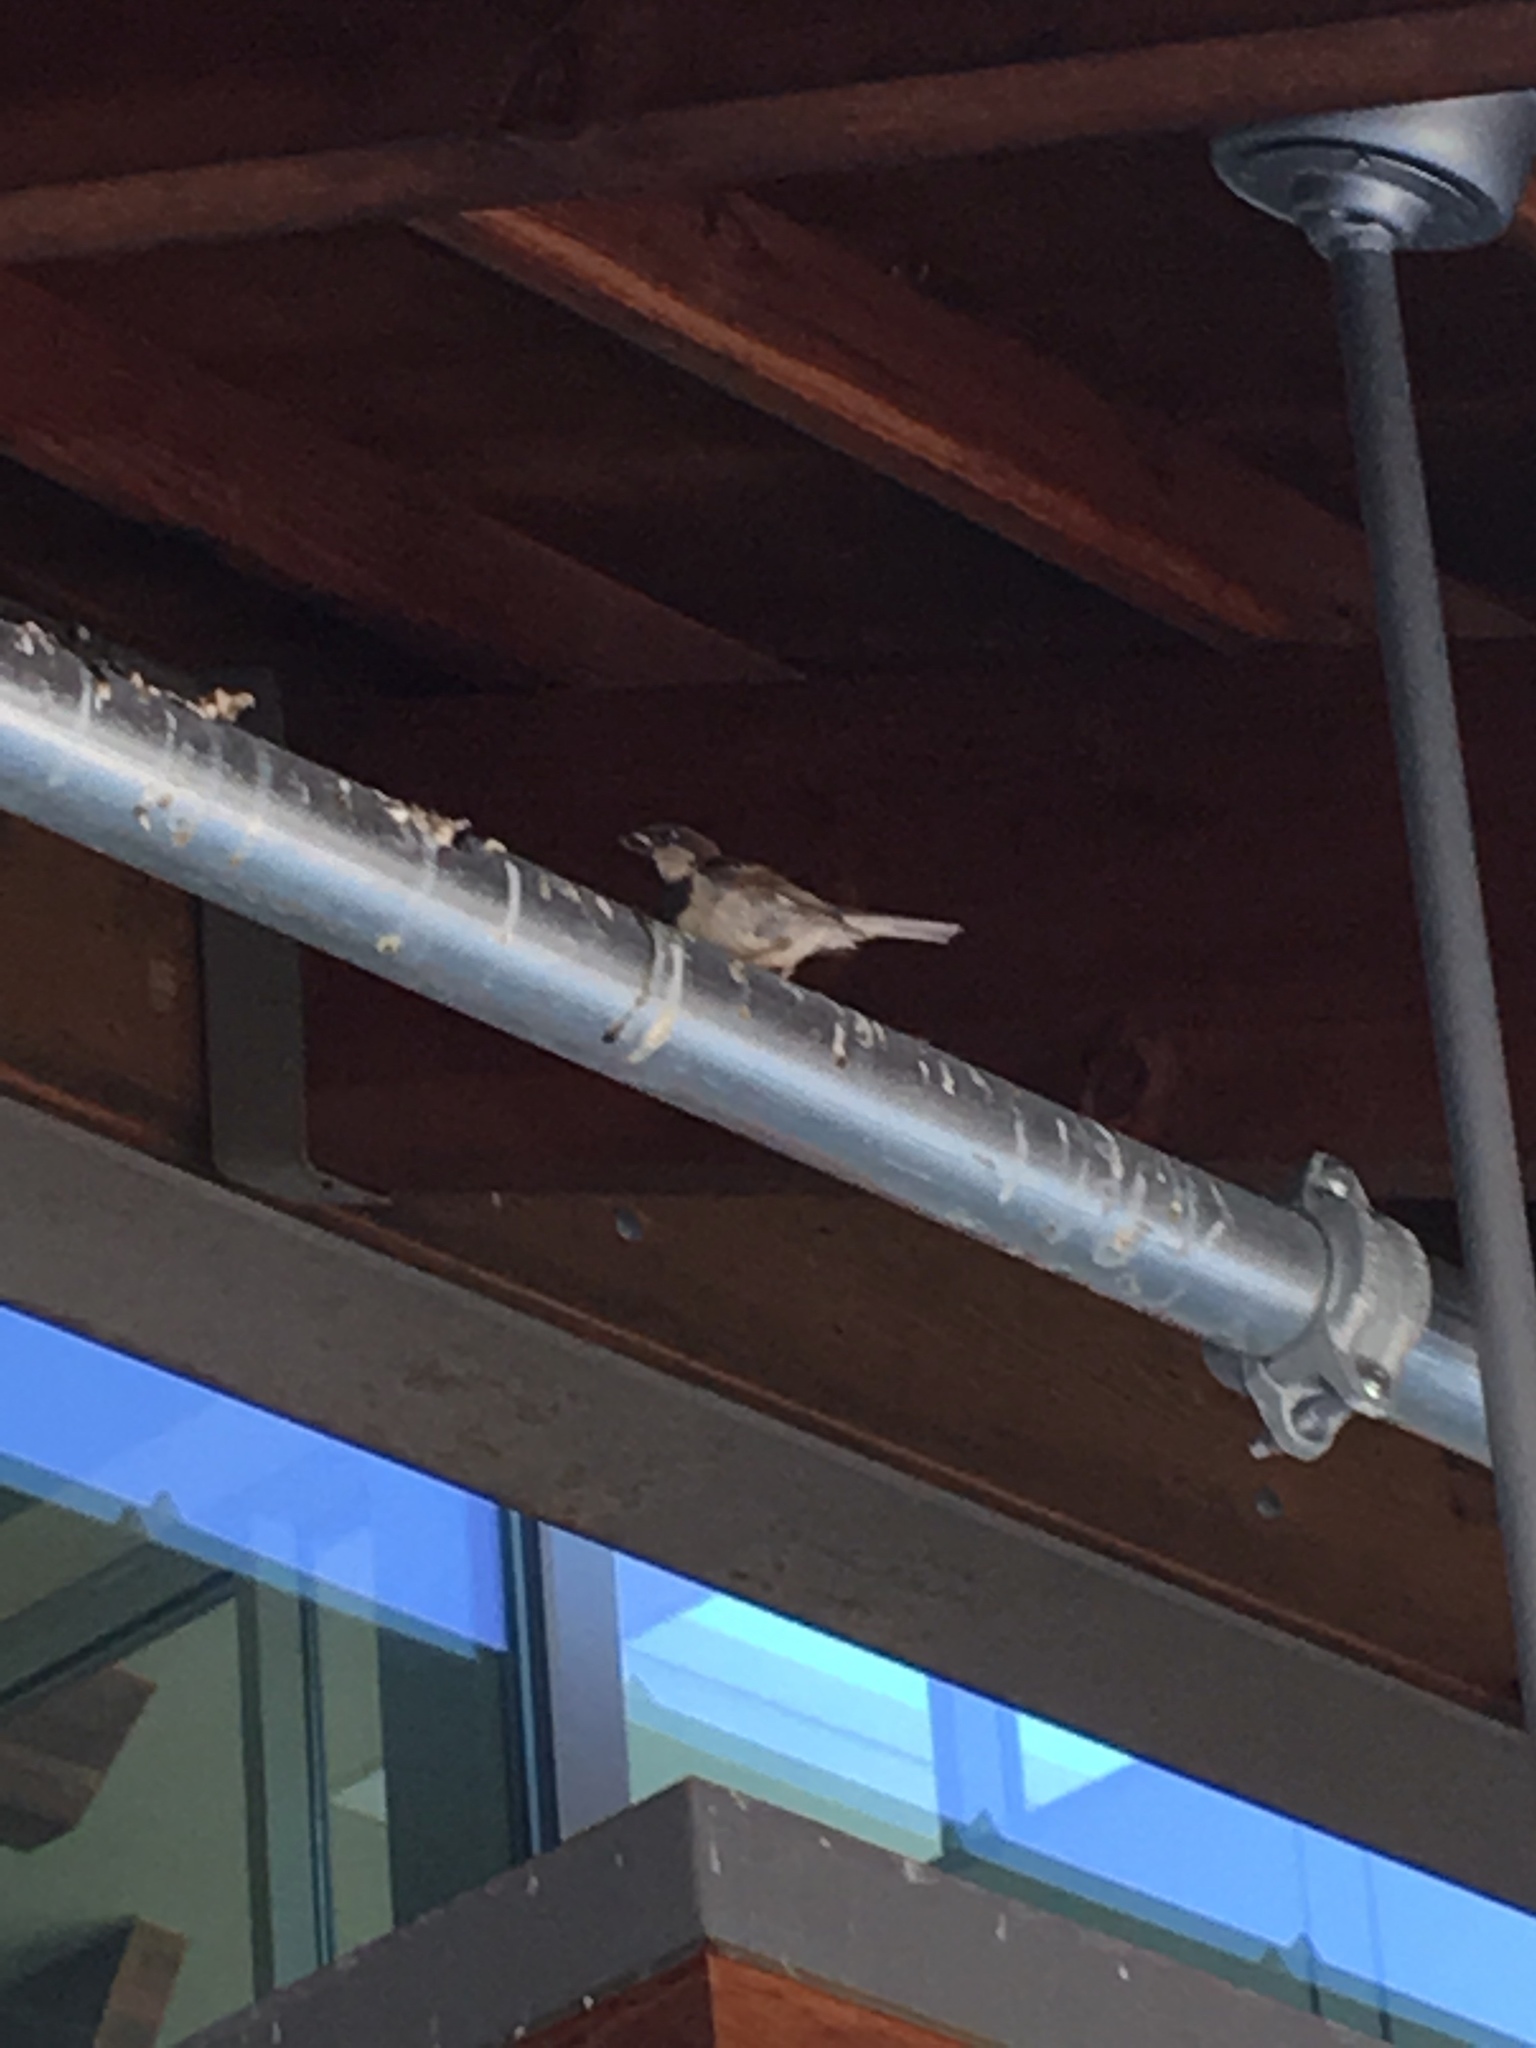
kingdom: Animalia
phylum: Chordata
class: Aves
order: Passeriformes
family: Passeridae
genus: Passer
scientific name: Passer domesticus
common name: House sparrow
